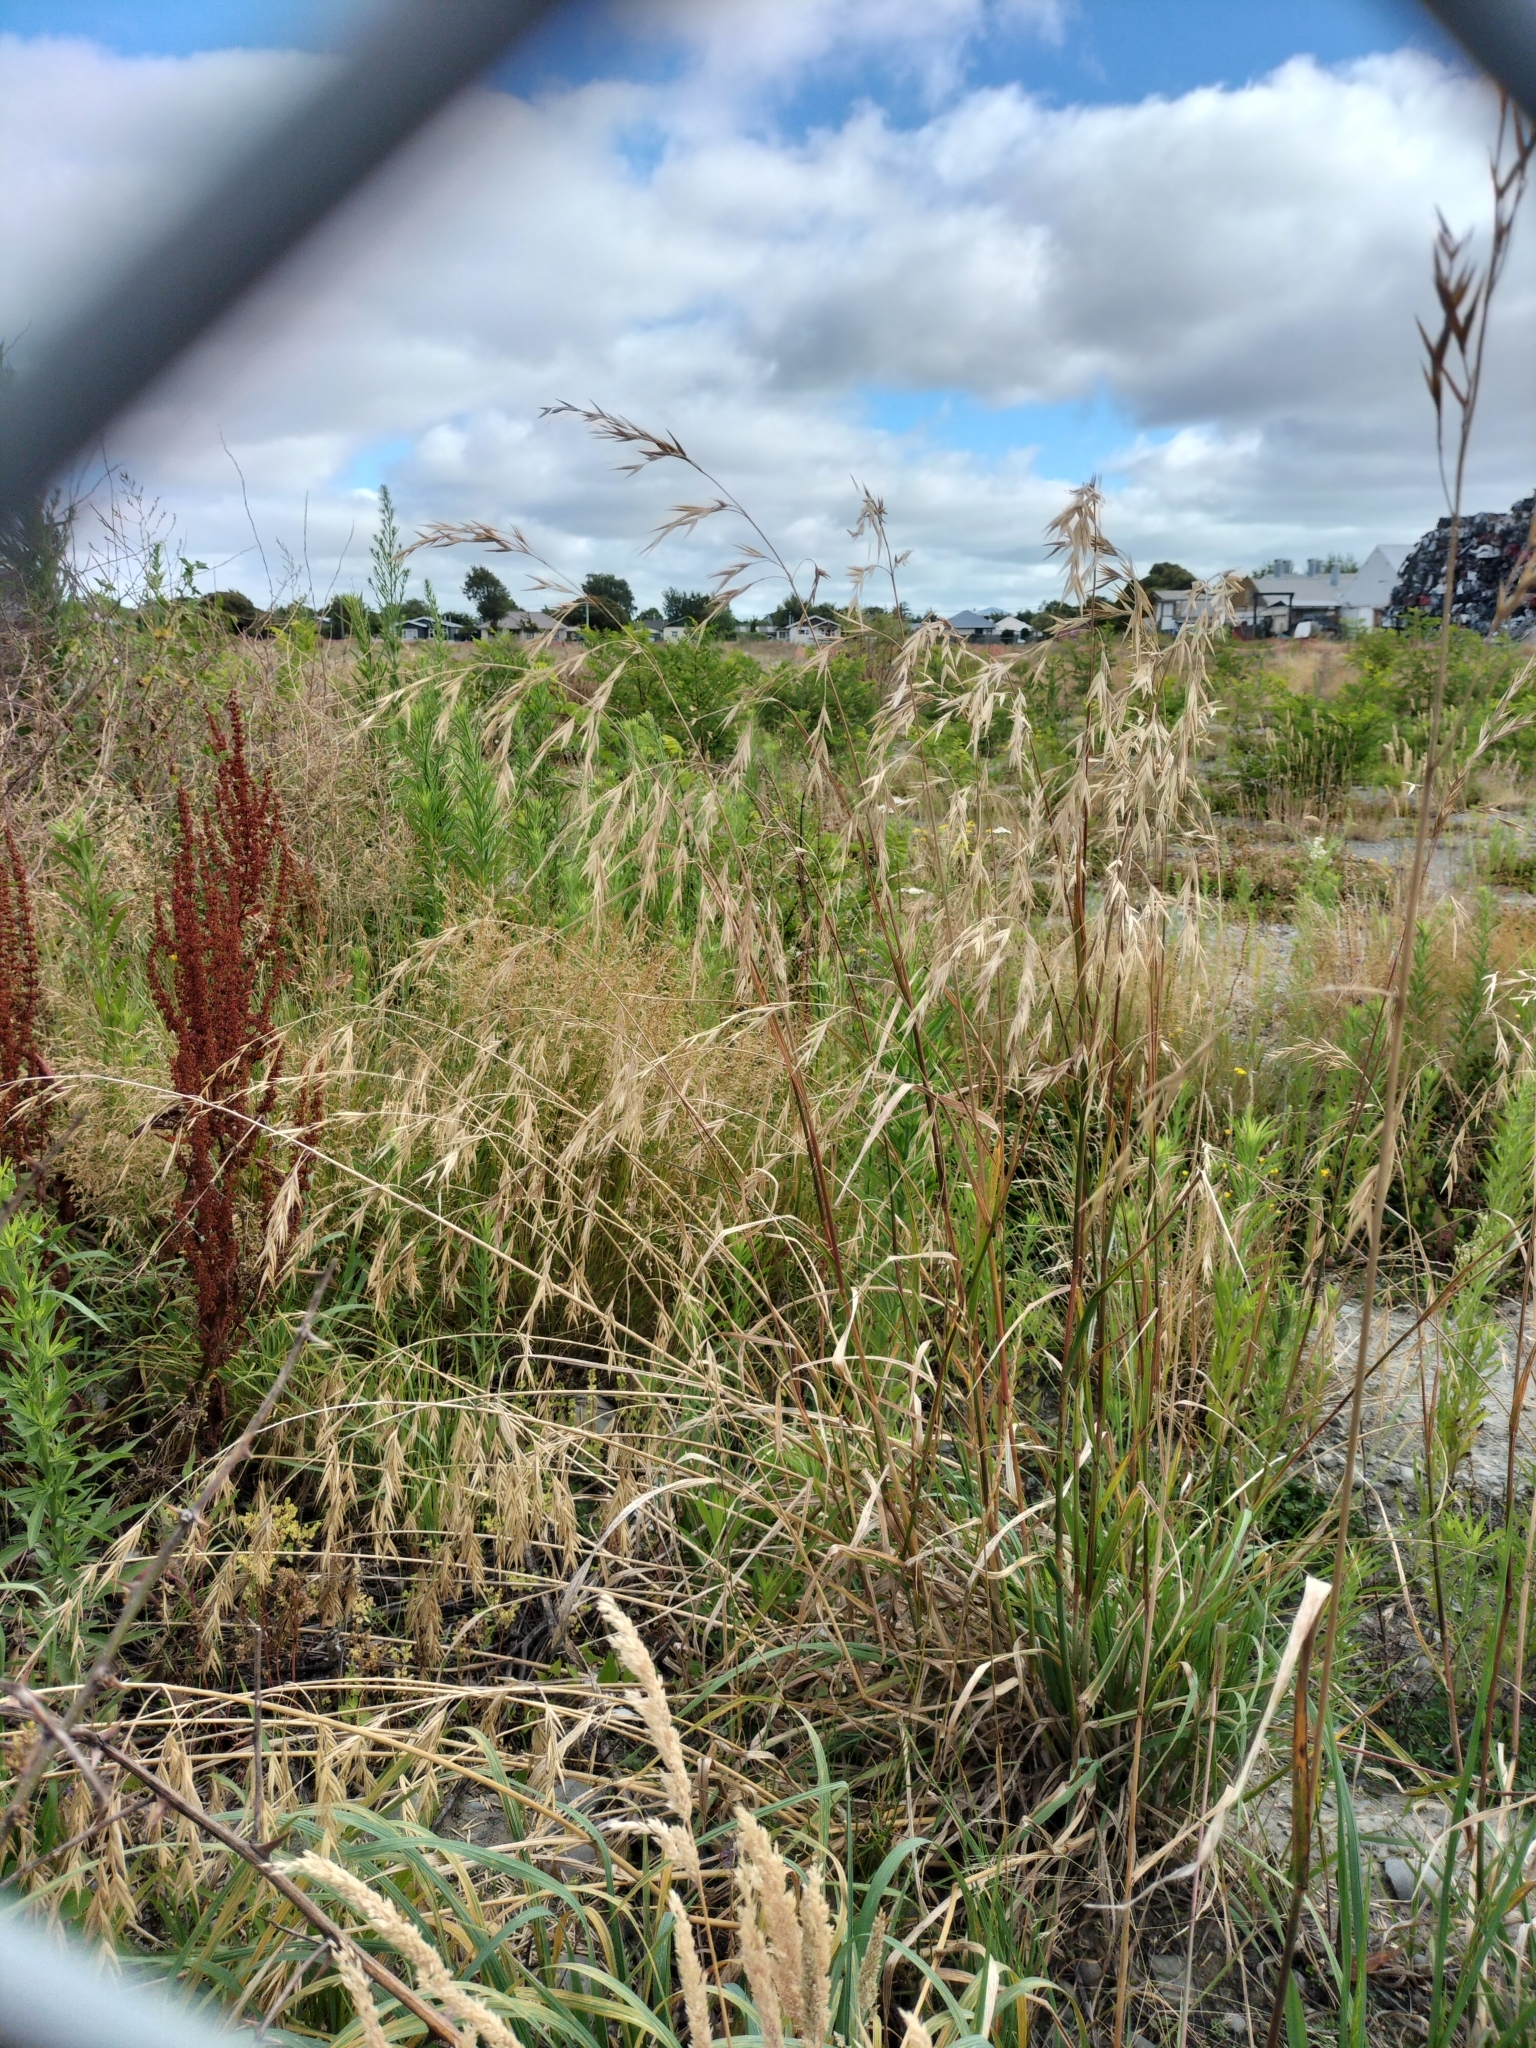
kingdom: Plantae
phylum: Tracheophyta
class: Liliopsida
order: Poales
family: Poaceae
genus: Bromus
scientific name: Bromus catharticus
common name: Rescuegrass
